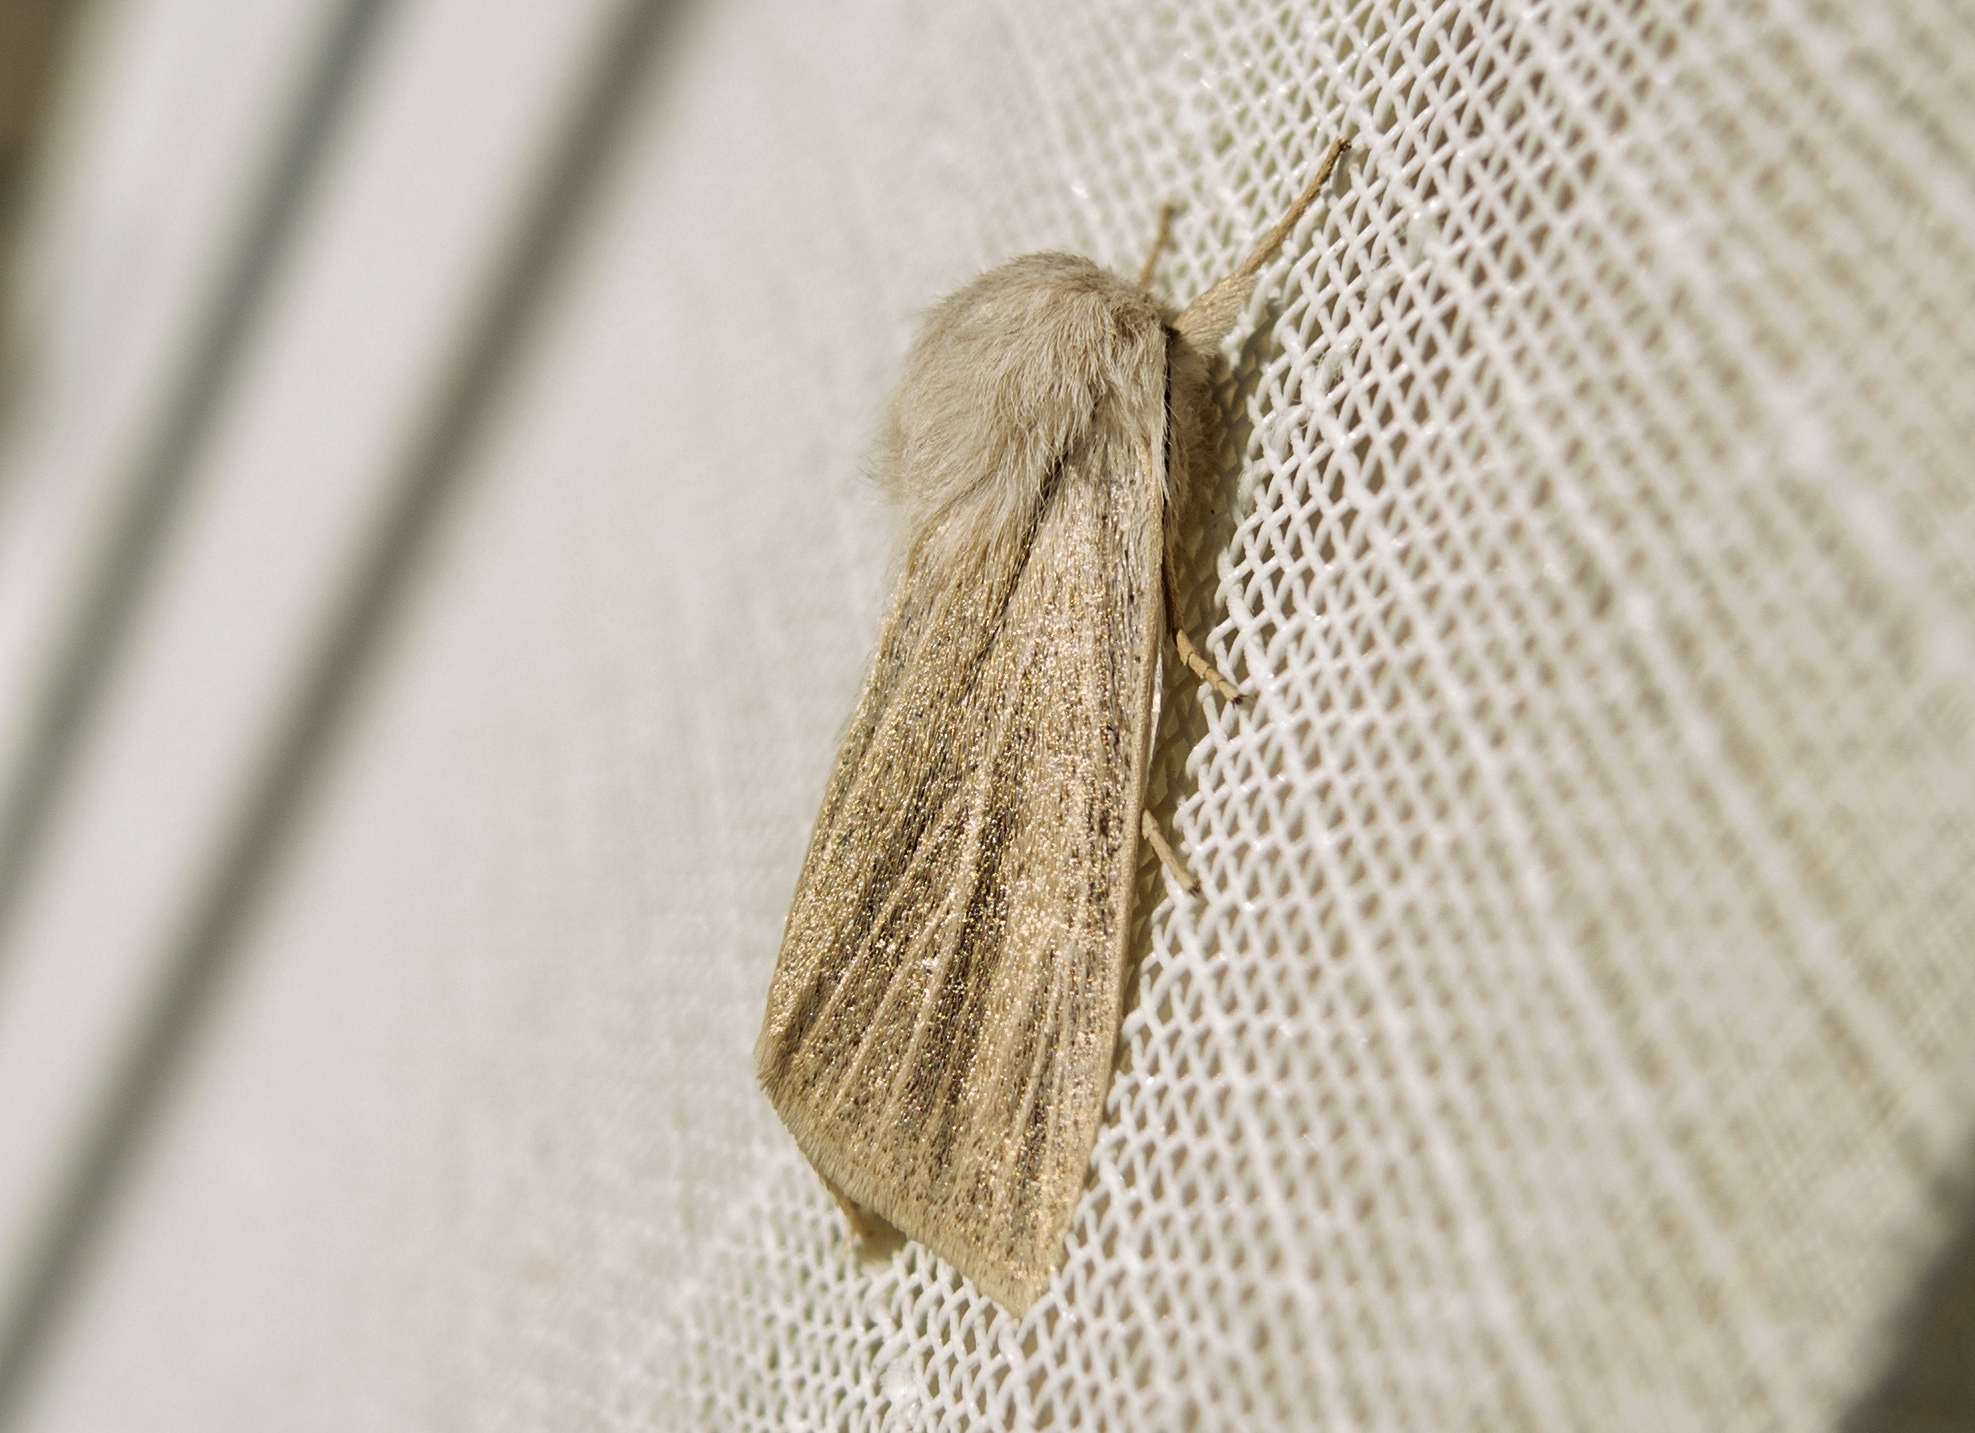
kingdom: Animalia
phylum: Arthropoda
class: Insecta
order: Lepidoptera
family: Noctuidae
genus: Simyra
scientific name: Simyra albovenosa
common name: Reed dagger
